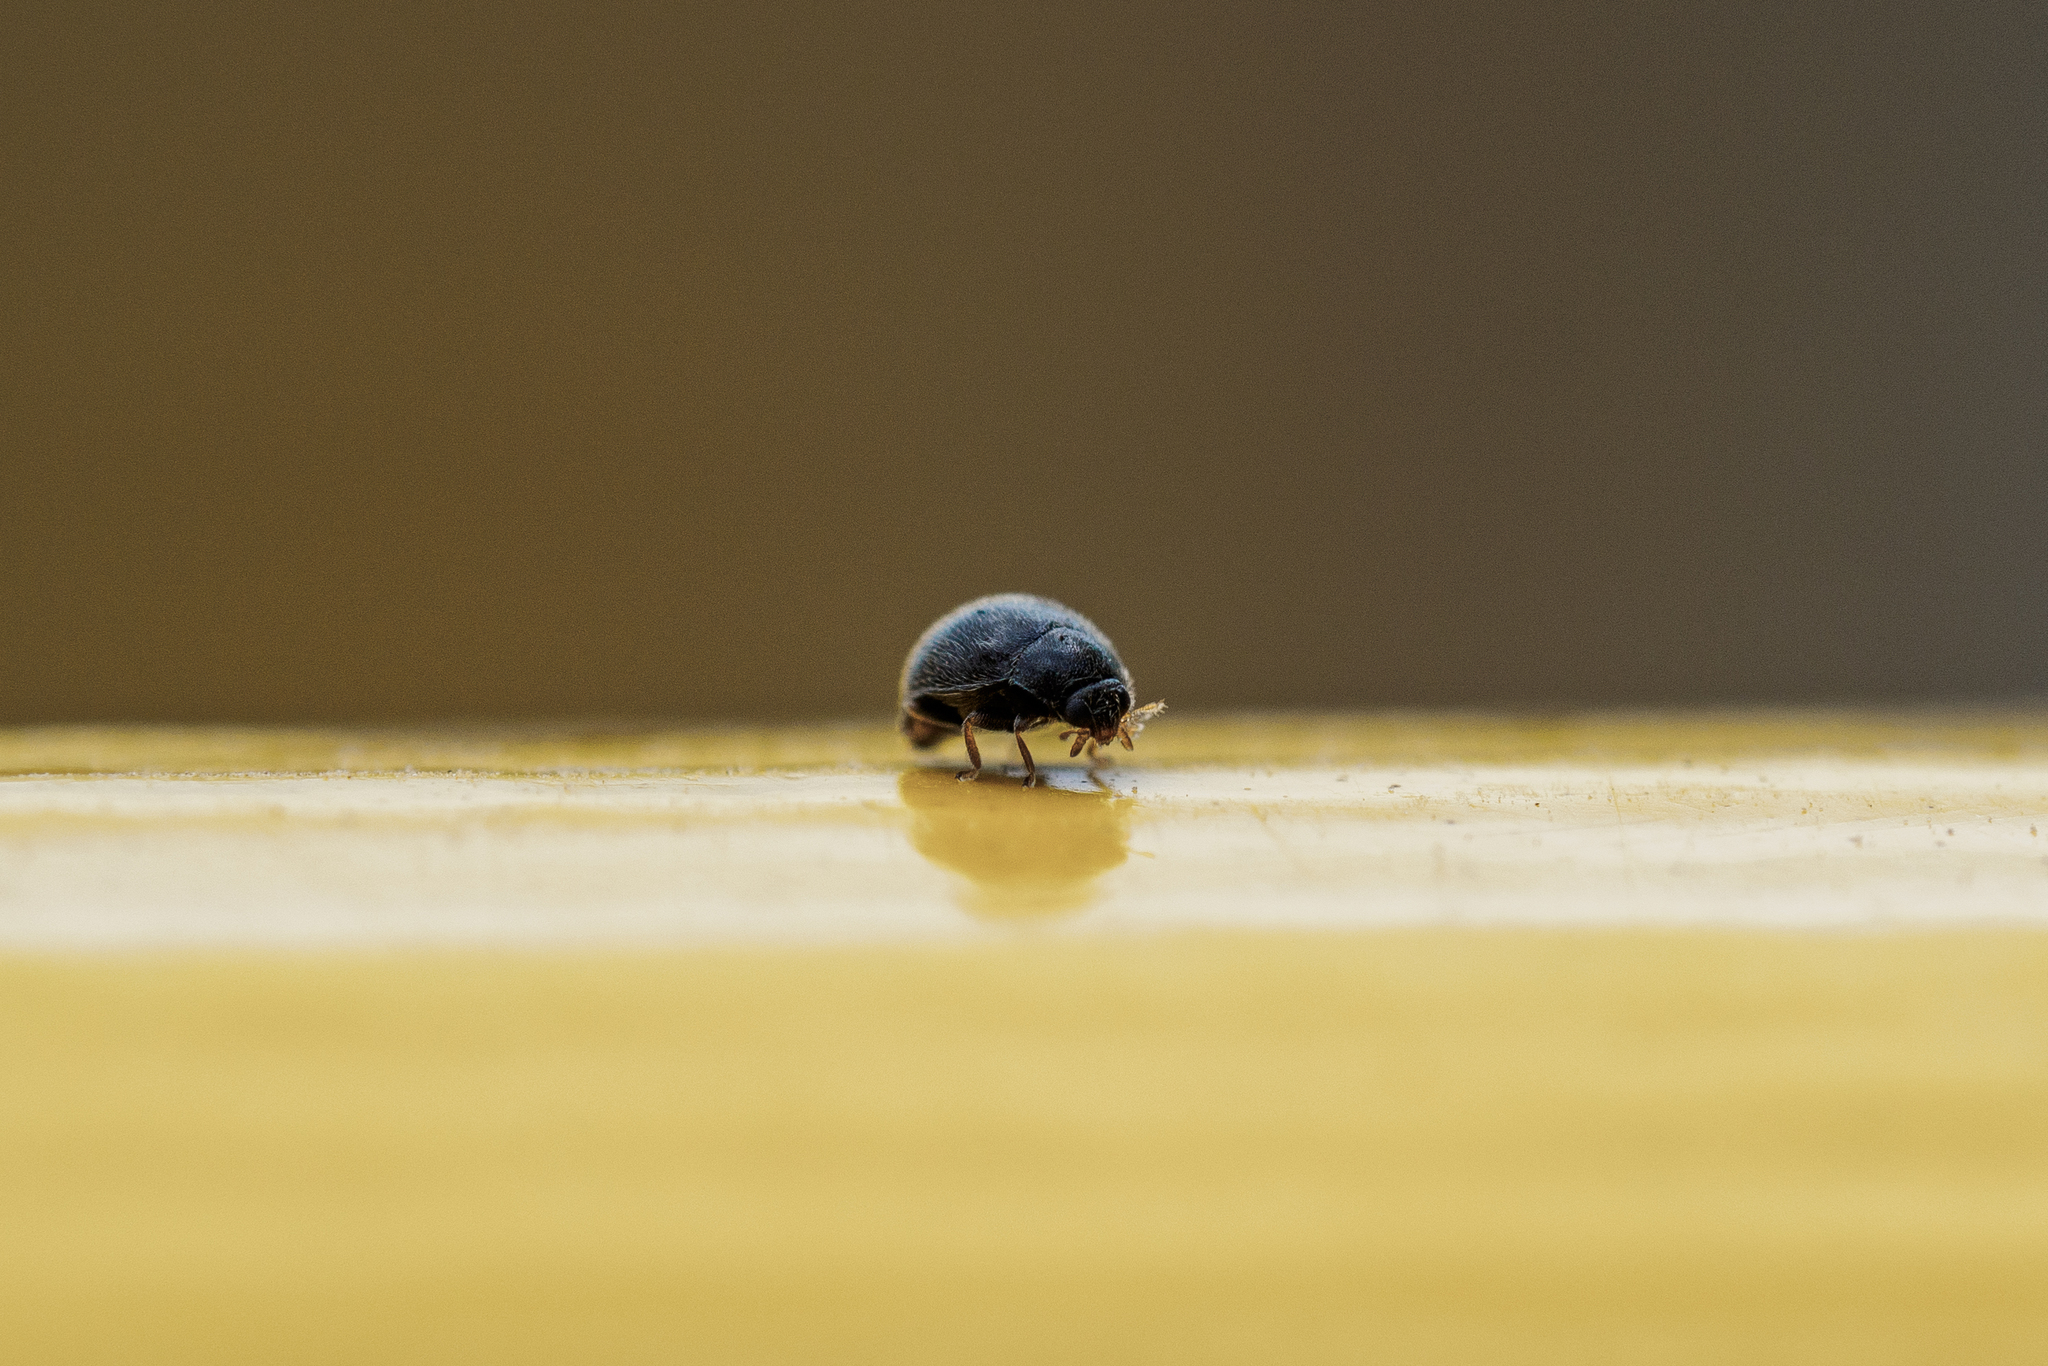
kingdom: Animalia
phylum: Arthropoda
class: Insecta
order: Coleoptera
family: Coccinellidae
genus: Stethorus
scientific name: Stethorus pusillus
